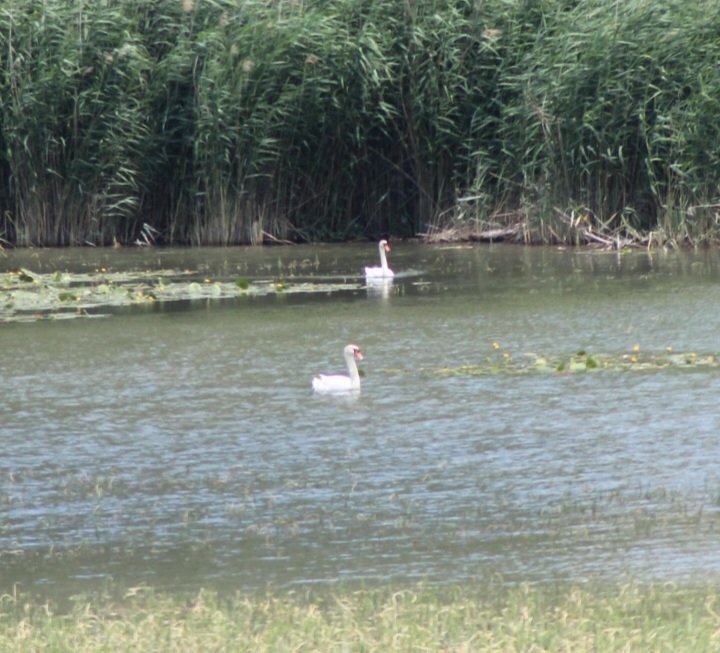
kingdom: Animalia
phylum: Chordata
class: Aves
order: Anseriformes
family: Anatidae
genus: Cygnus
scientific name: Cygnus olor
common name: Mute swan
